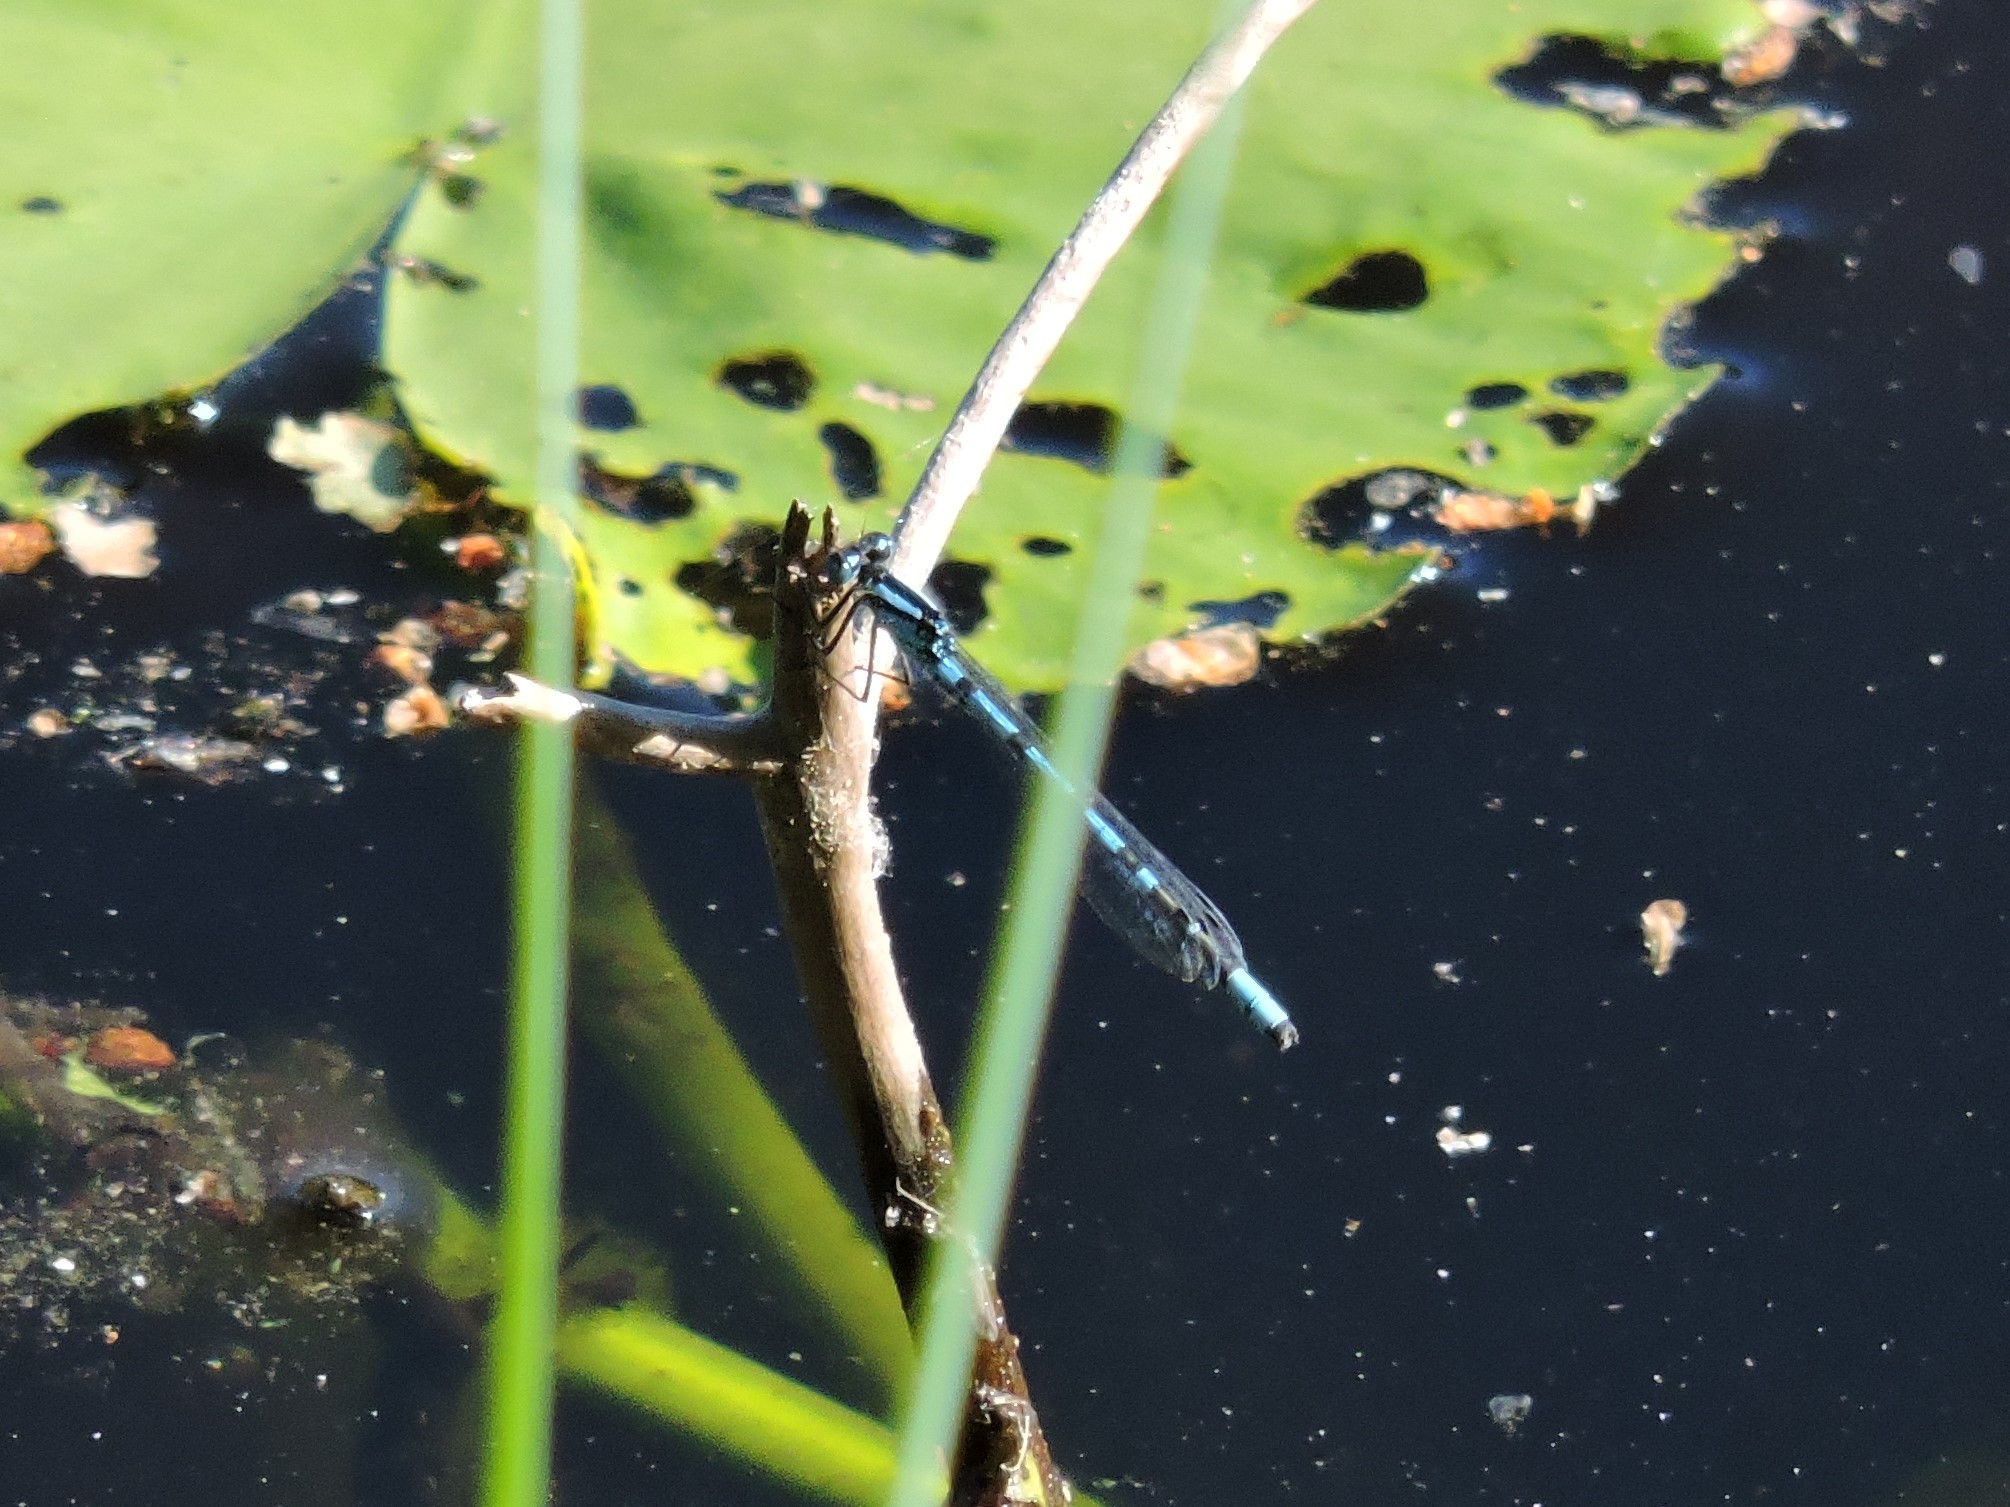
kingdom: Animalia
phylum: Arthropoda
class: Insecta
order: Odonata
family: Coenagrionidae
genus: Enallagma
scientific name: Enallagma cyathigerum
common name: Common blue damselfly
